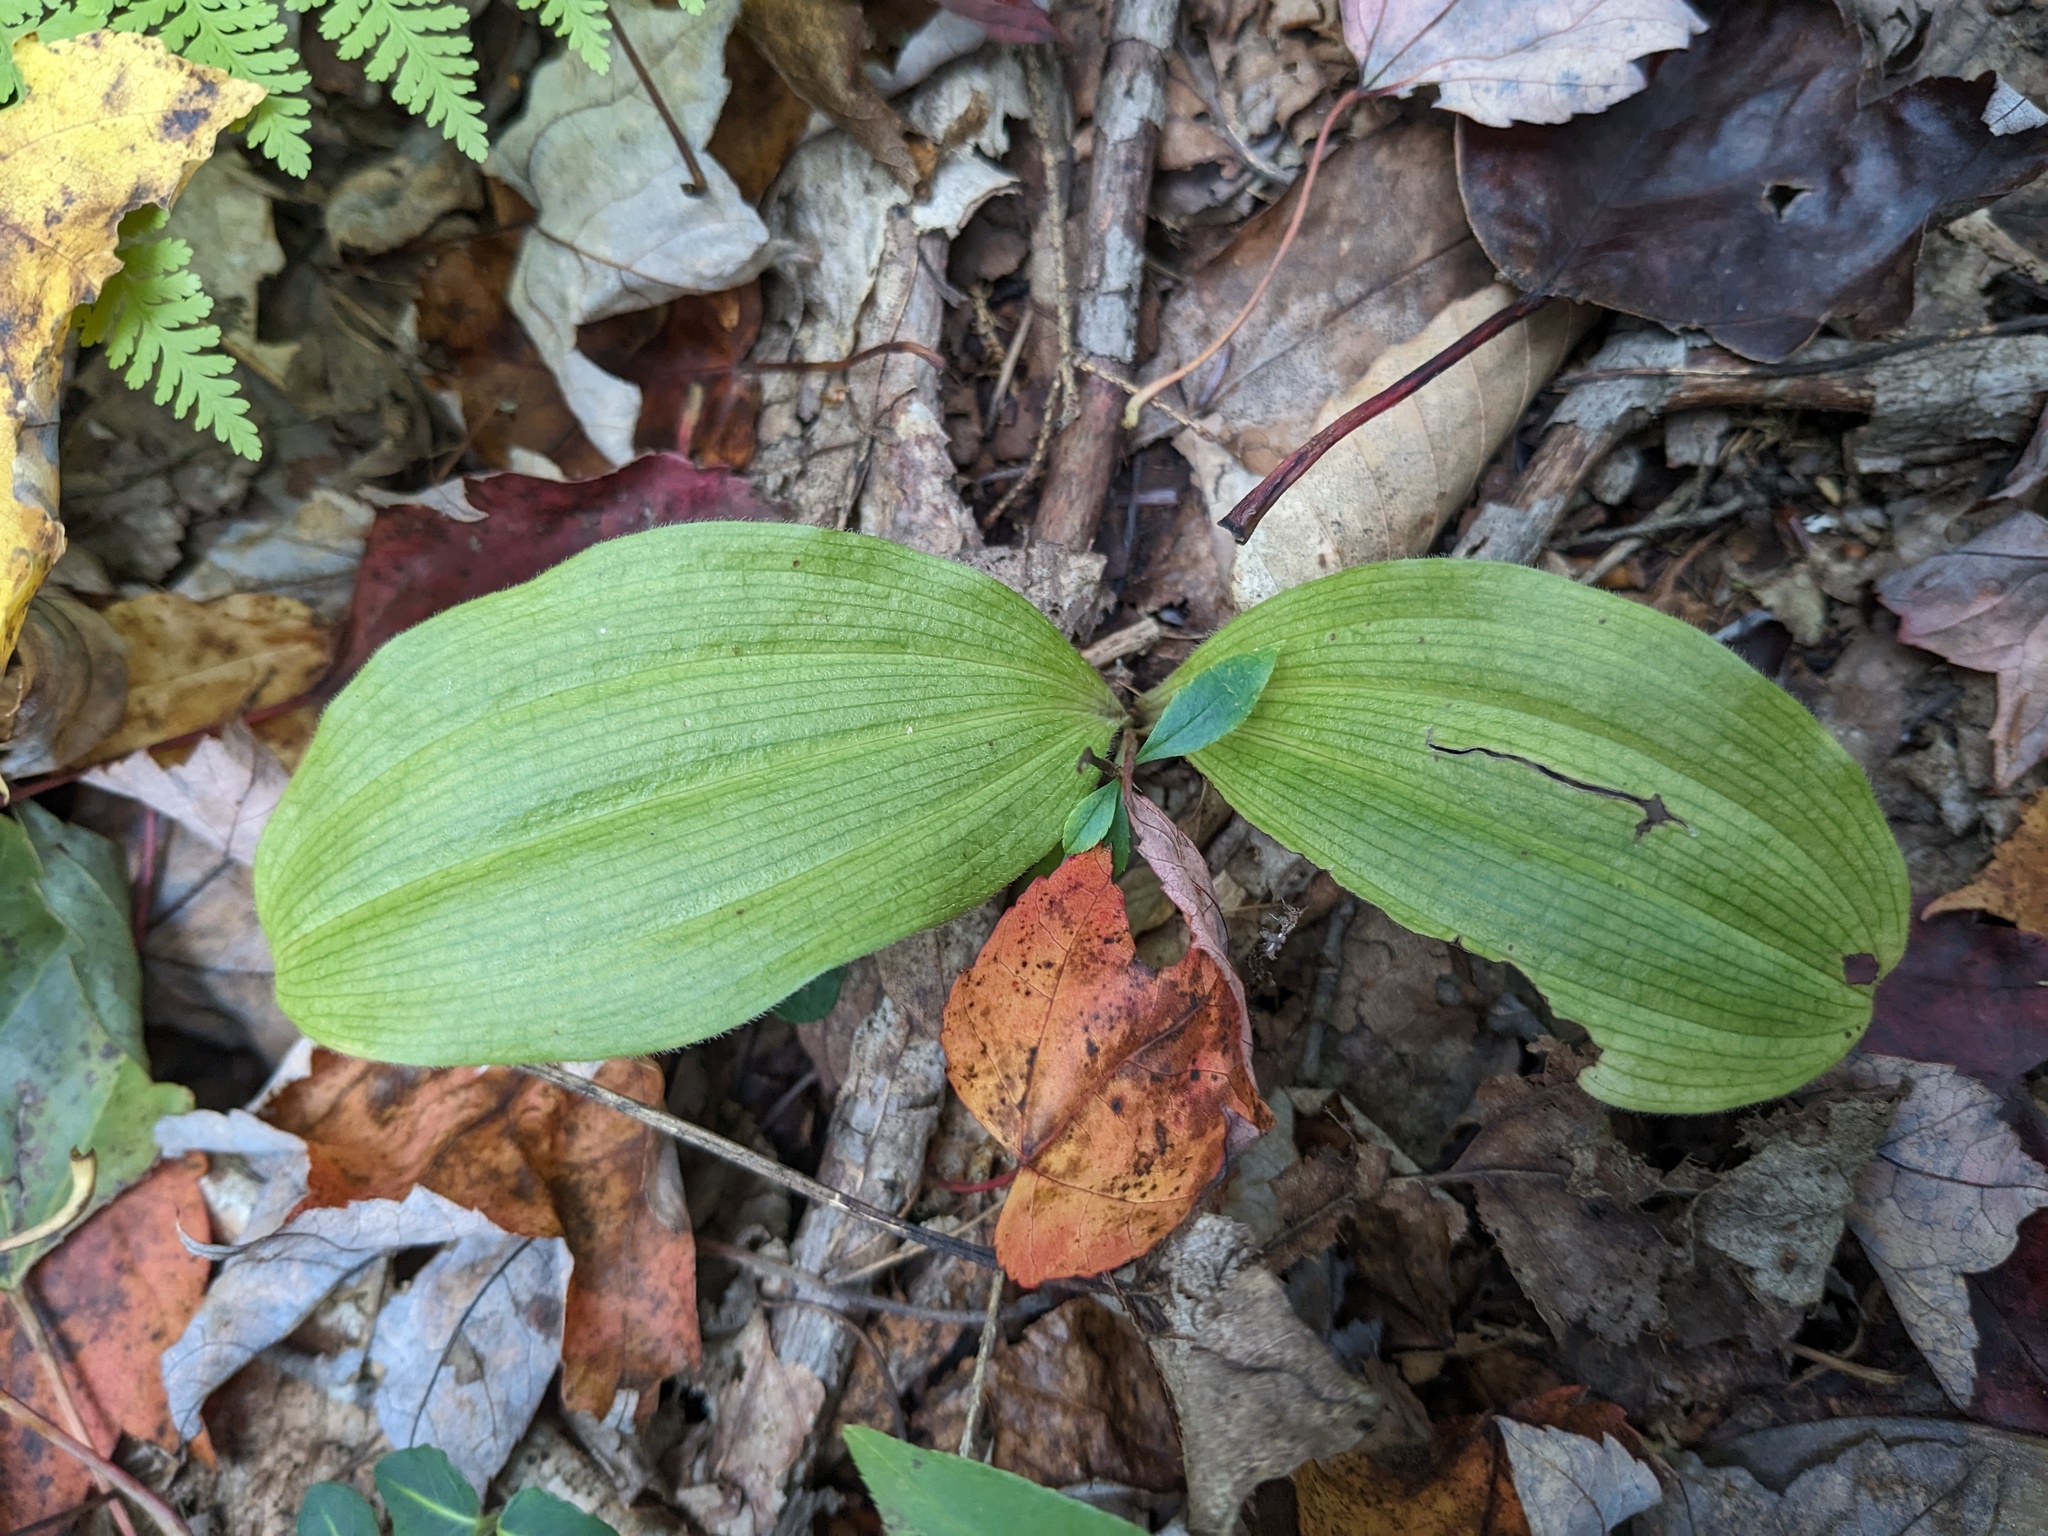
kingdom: Plantae
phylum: Tracheophyta
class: Liliopsida
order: Asparagales
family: Orchidaceae
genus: Cypripedium
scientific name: Cypripedium acaule
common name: Pink lady's-slipper
